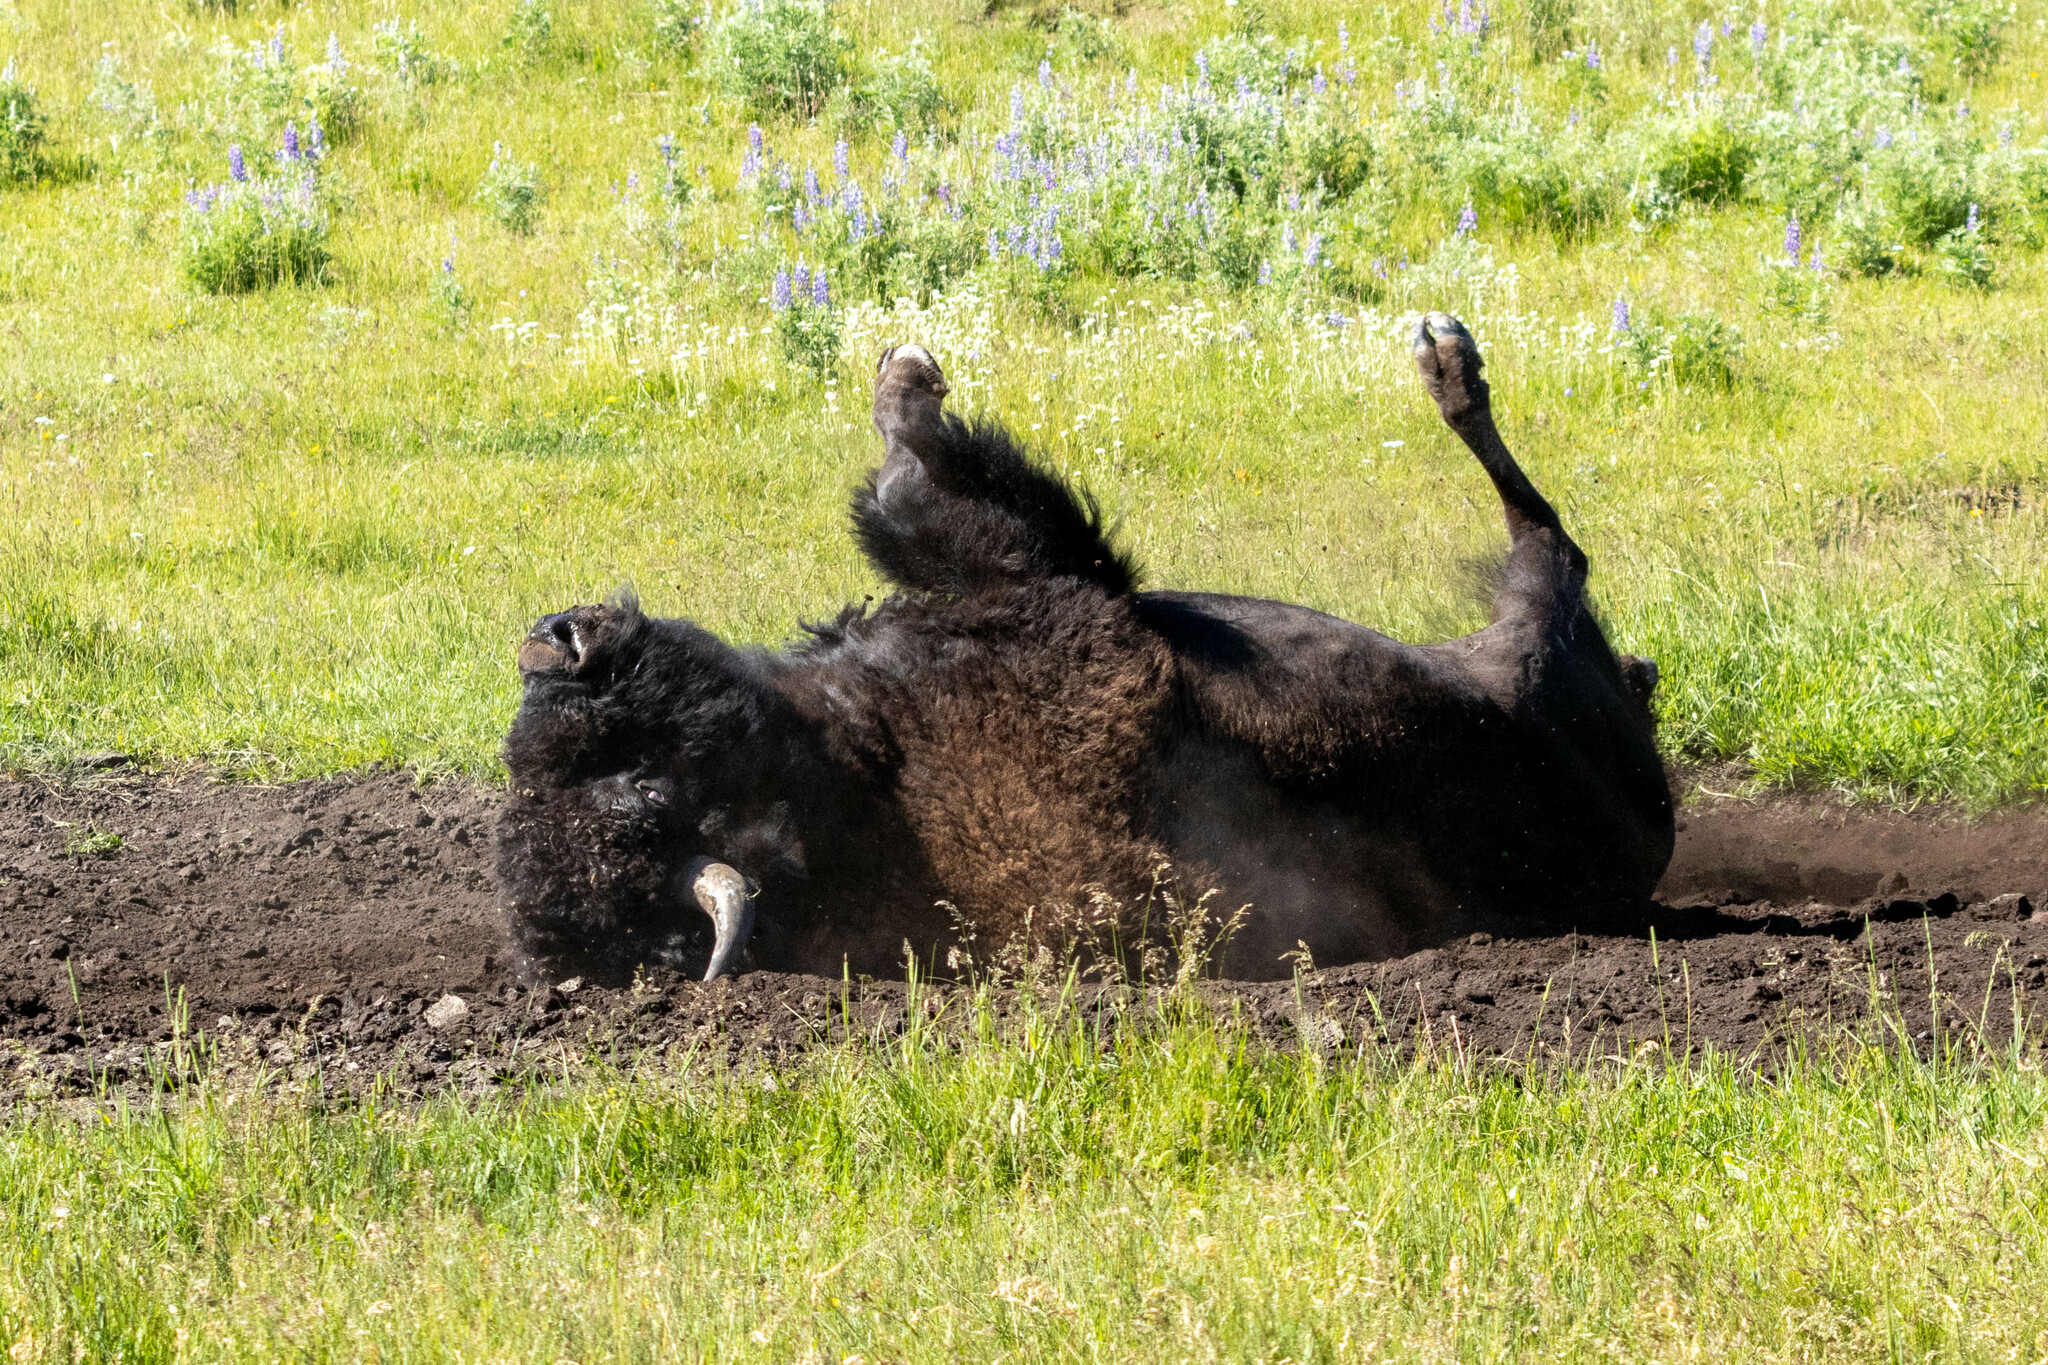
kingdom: Animalia
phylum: Chordata
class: Mammalia
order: Artiodactyla
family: Bovidae
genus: Bison
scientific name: Bison bison
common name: American bison
